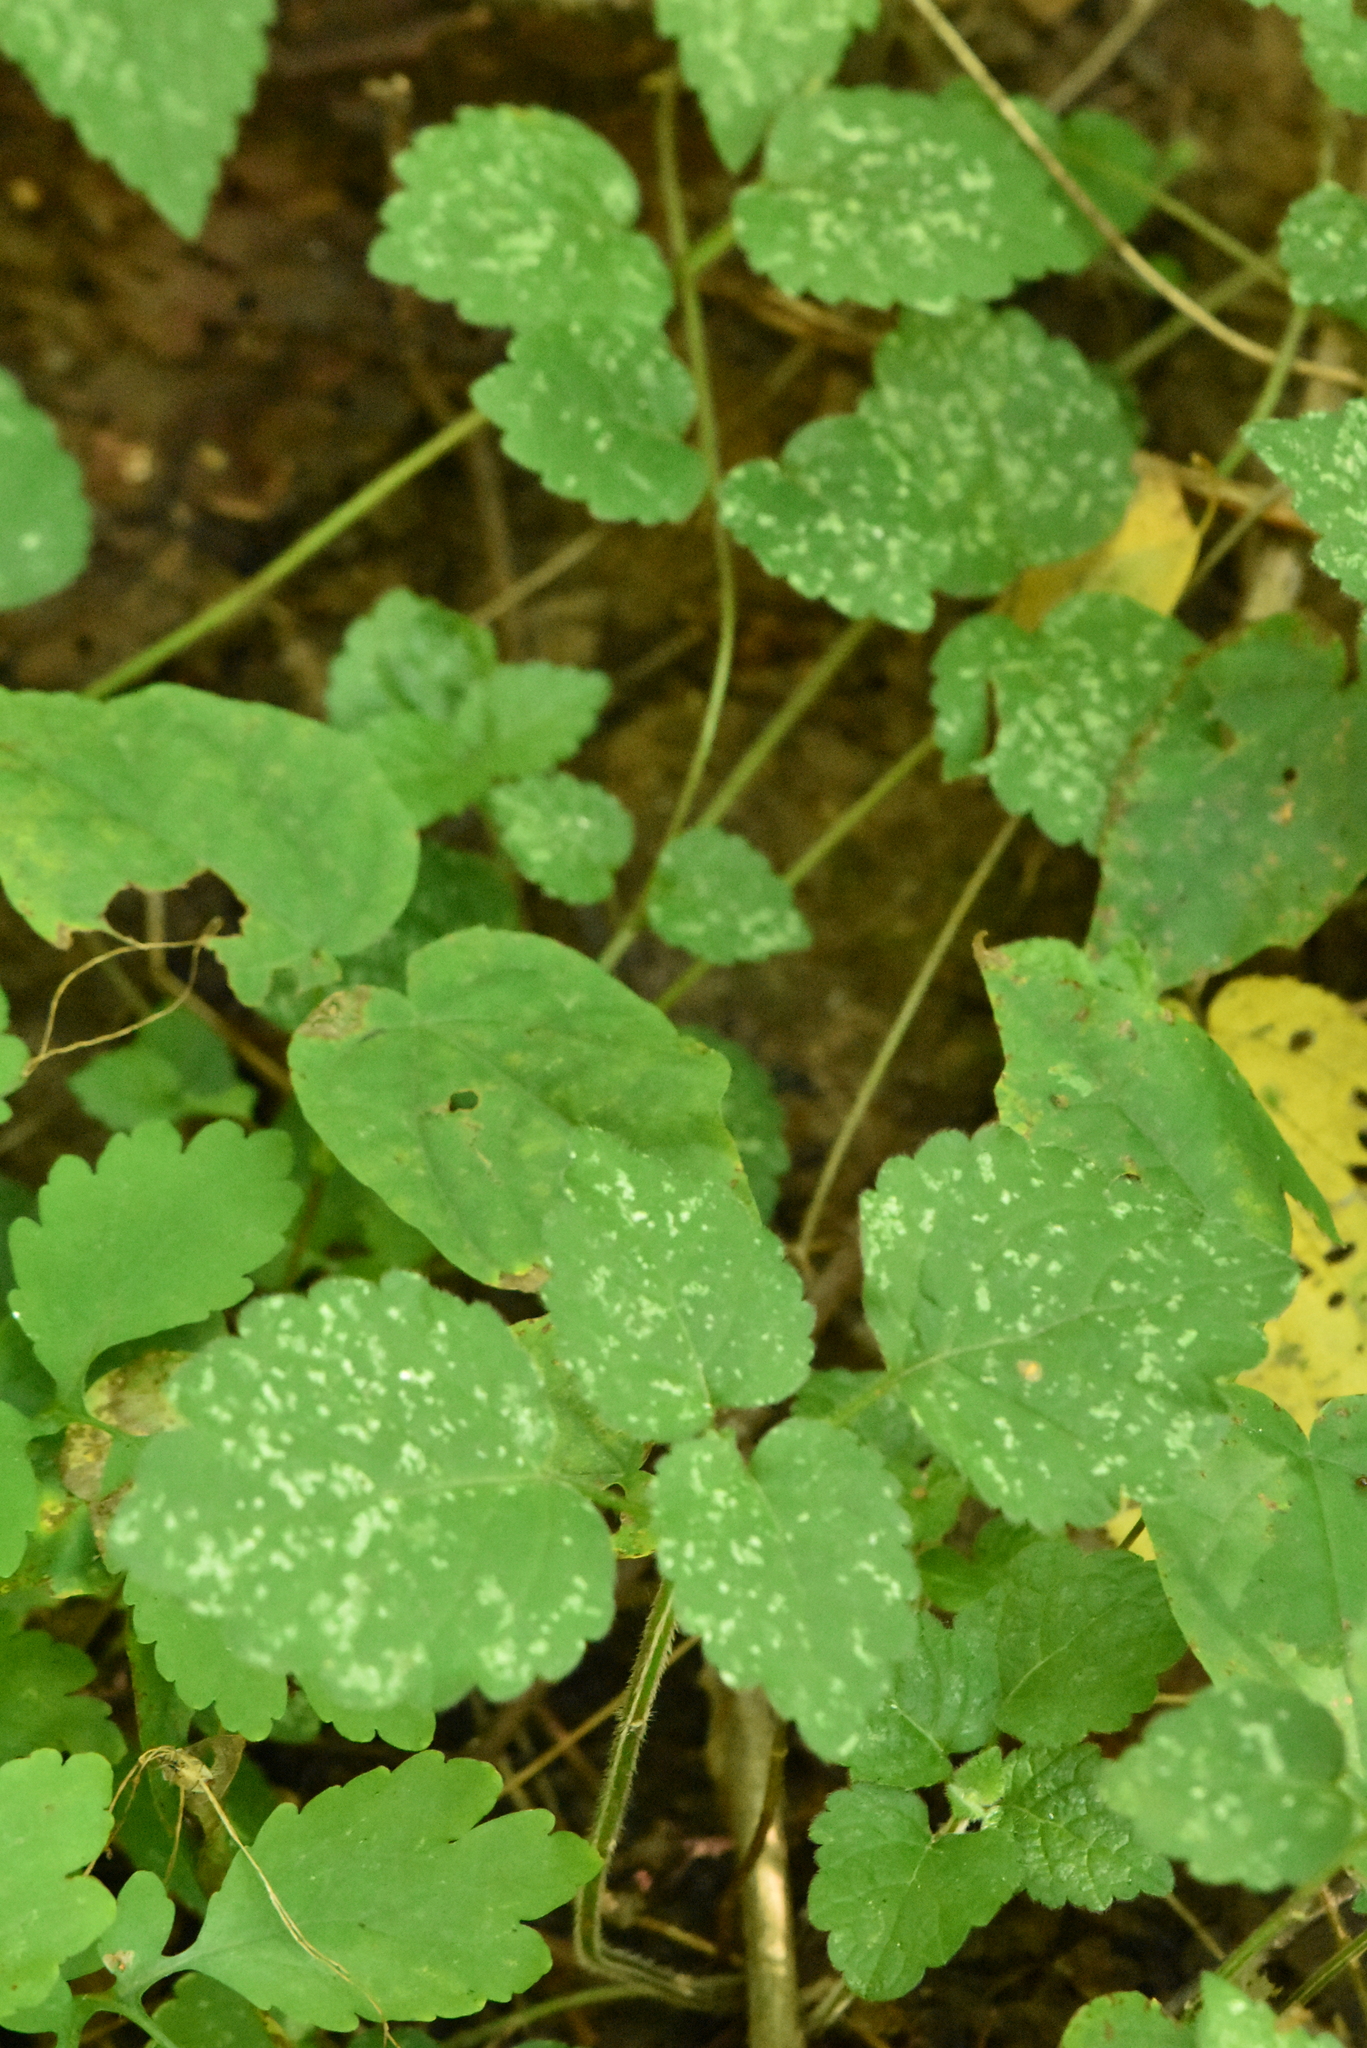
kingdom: Plantae
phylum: Tracheophyta
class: Magnoliopsida
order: Lamiales
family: Lamiaceae
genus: Lamium
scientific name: Lamium galeobdolon
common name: Yellow archangel
